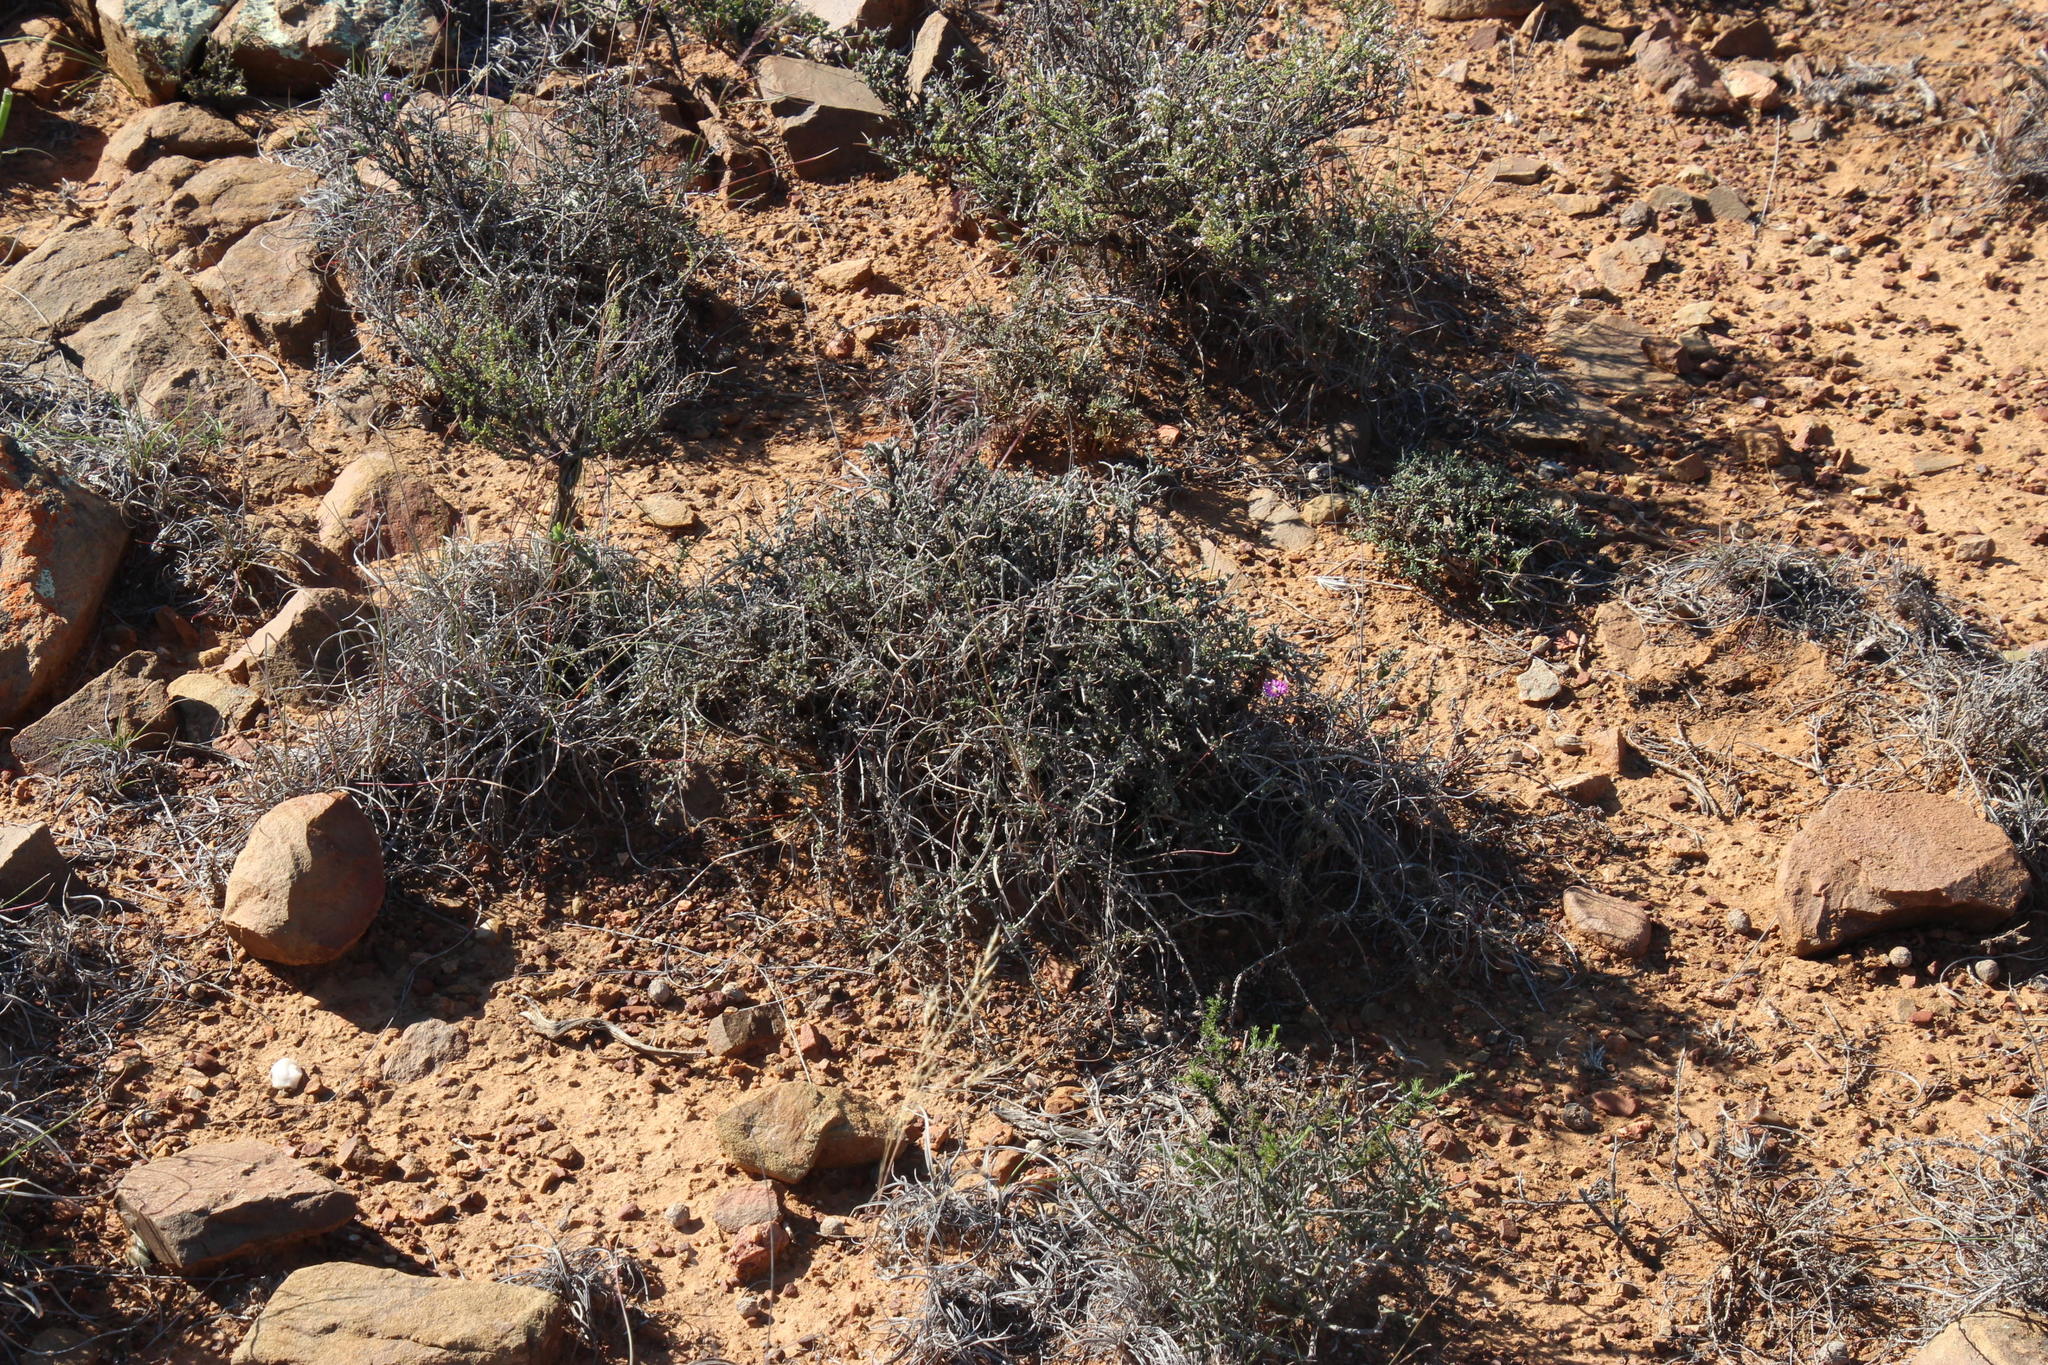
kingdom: Plantae
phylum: Tracheophyta
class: Magnoliopsida
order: Asterales
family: Asteraceae
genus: Helichrysum
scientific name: Helichrysum rosum
